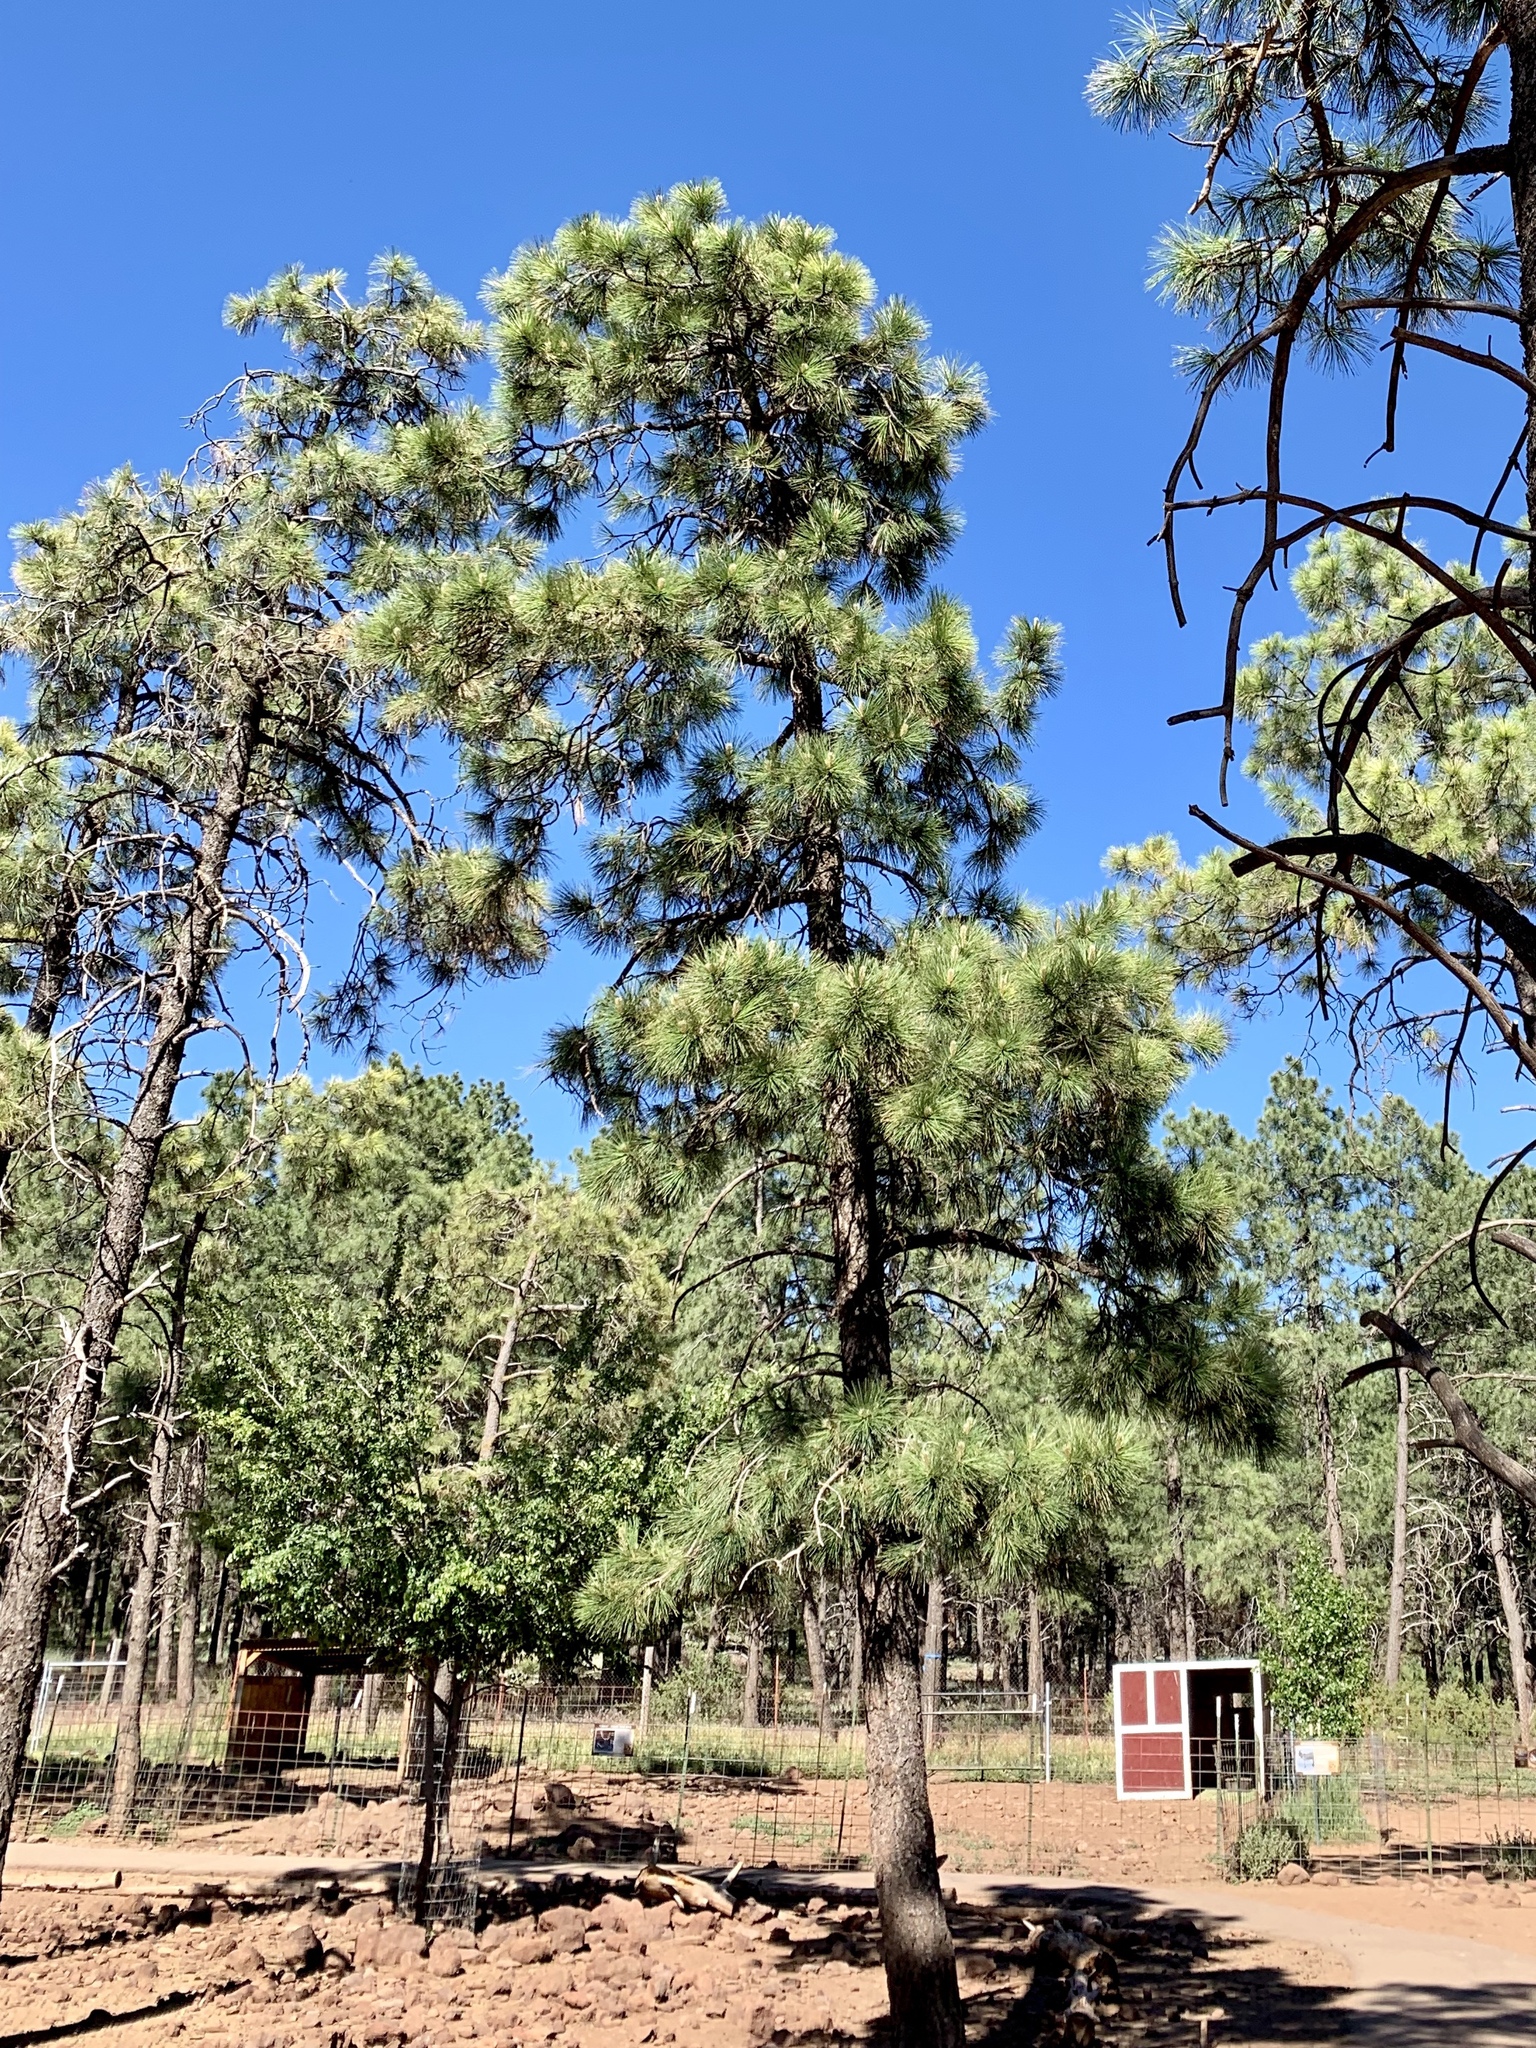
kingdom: Plantae
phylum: Tracheophyta
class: Pinopsida
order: Pinales
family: Pinaceae
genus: Pinus
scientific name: Pinus ponderosa
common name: Western yellow-pine
